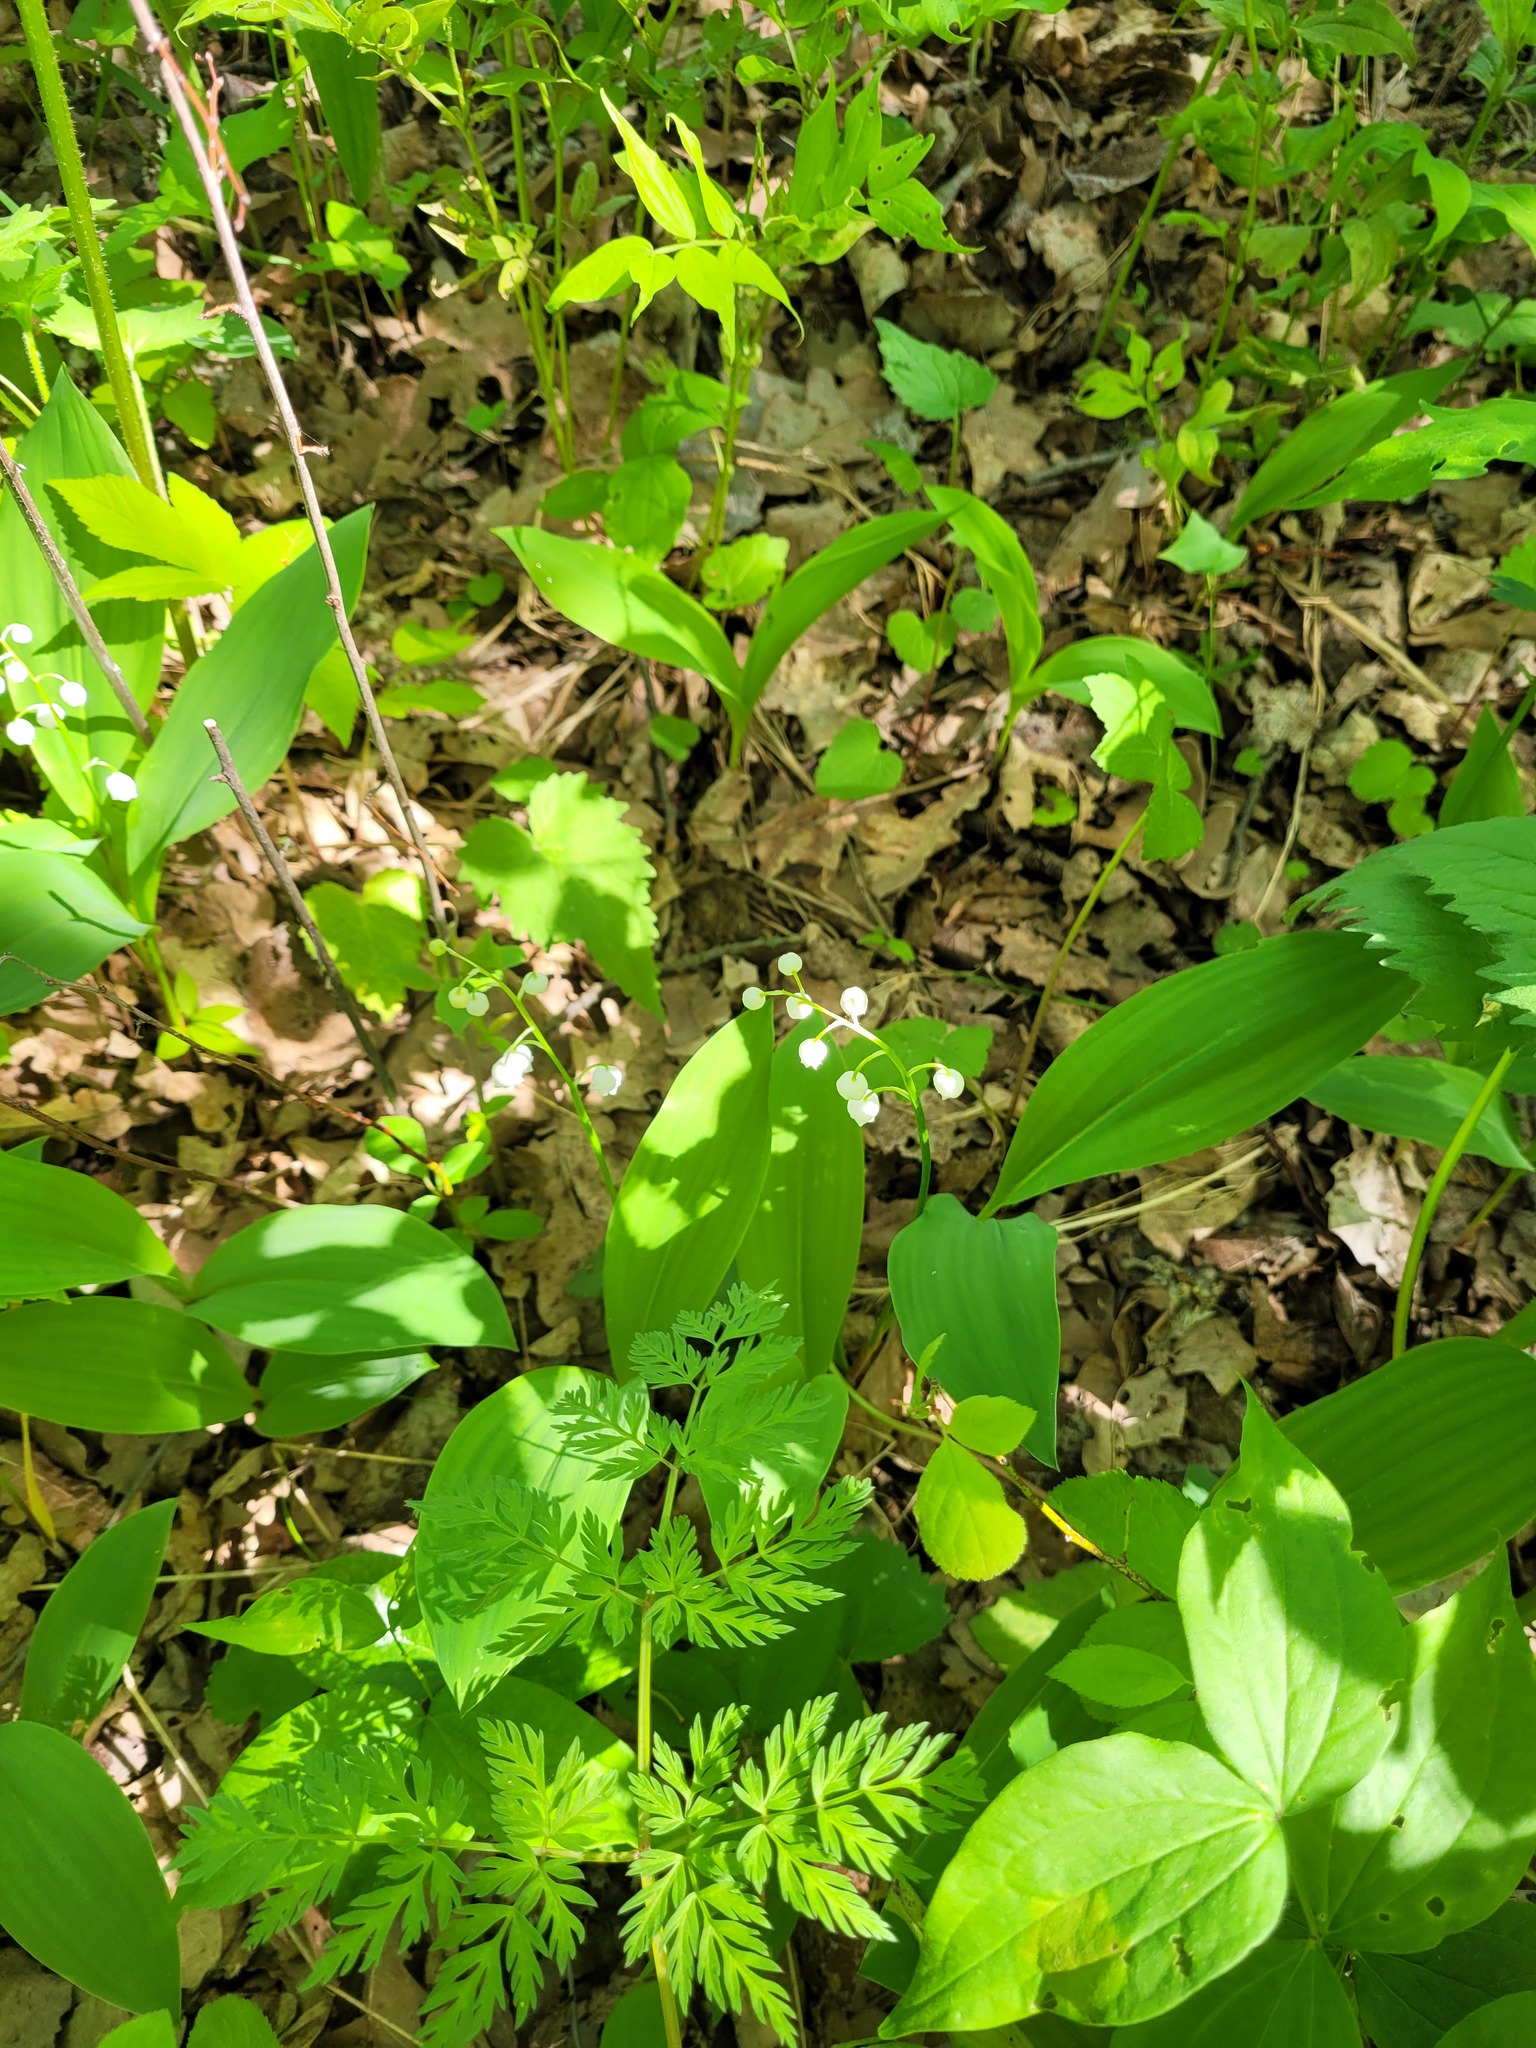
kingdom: Plantae
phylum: Tracheophyta
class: Liliopsida
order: Asparagales
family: Asparagaceae
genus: Convallaria
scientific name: Convallaria majalis
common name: Lily-of-the-valley
